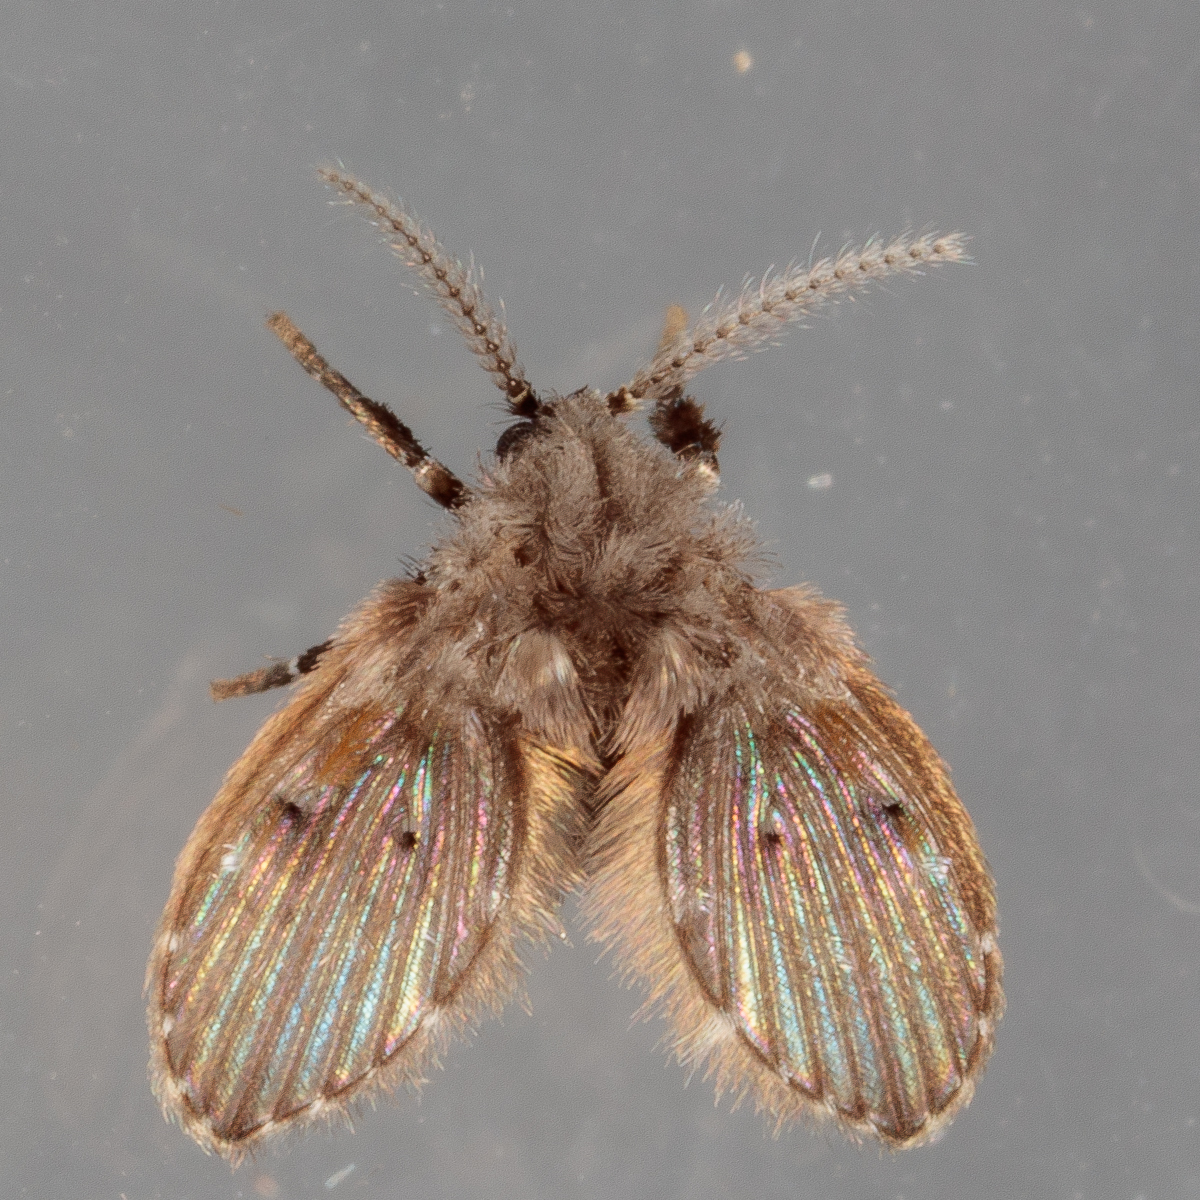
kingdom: Animalia
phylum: Arthropoda
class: Insecta
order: Diptera
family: Psychodidae
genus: Clogmia
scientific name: Clogmia albipunctatus
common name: White-spotted moth fly
